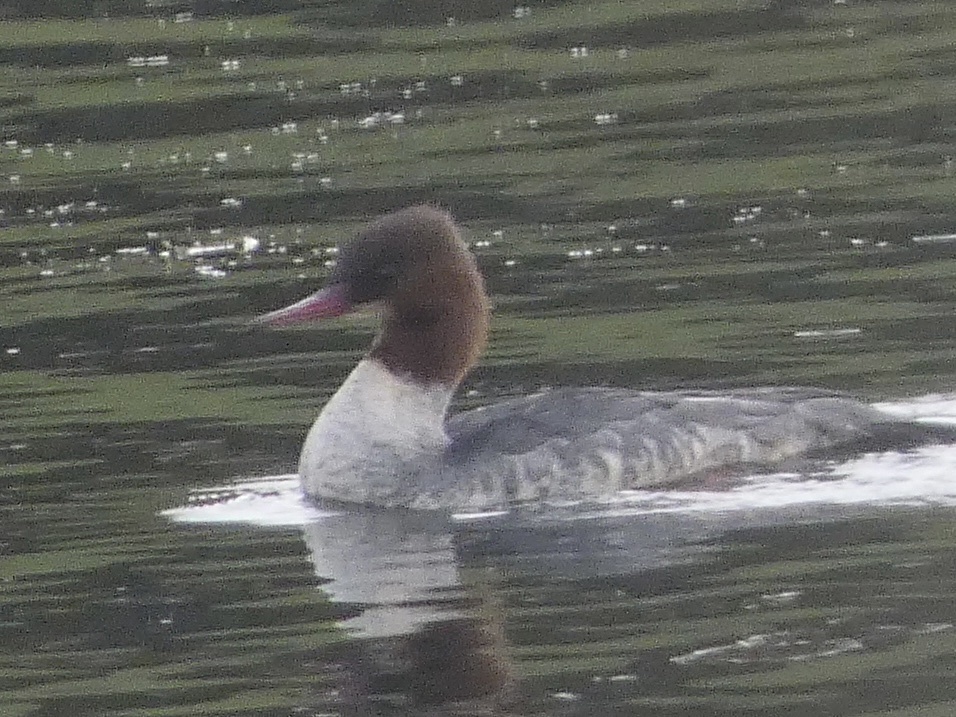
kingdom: Animalia
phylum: Chordata
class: Aves
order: Anseriformes
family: Anatidae
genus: Mergus
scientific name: Mergus merganser
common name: Common merganser
